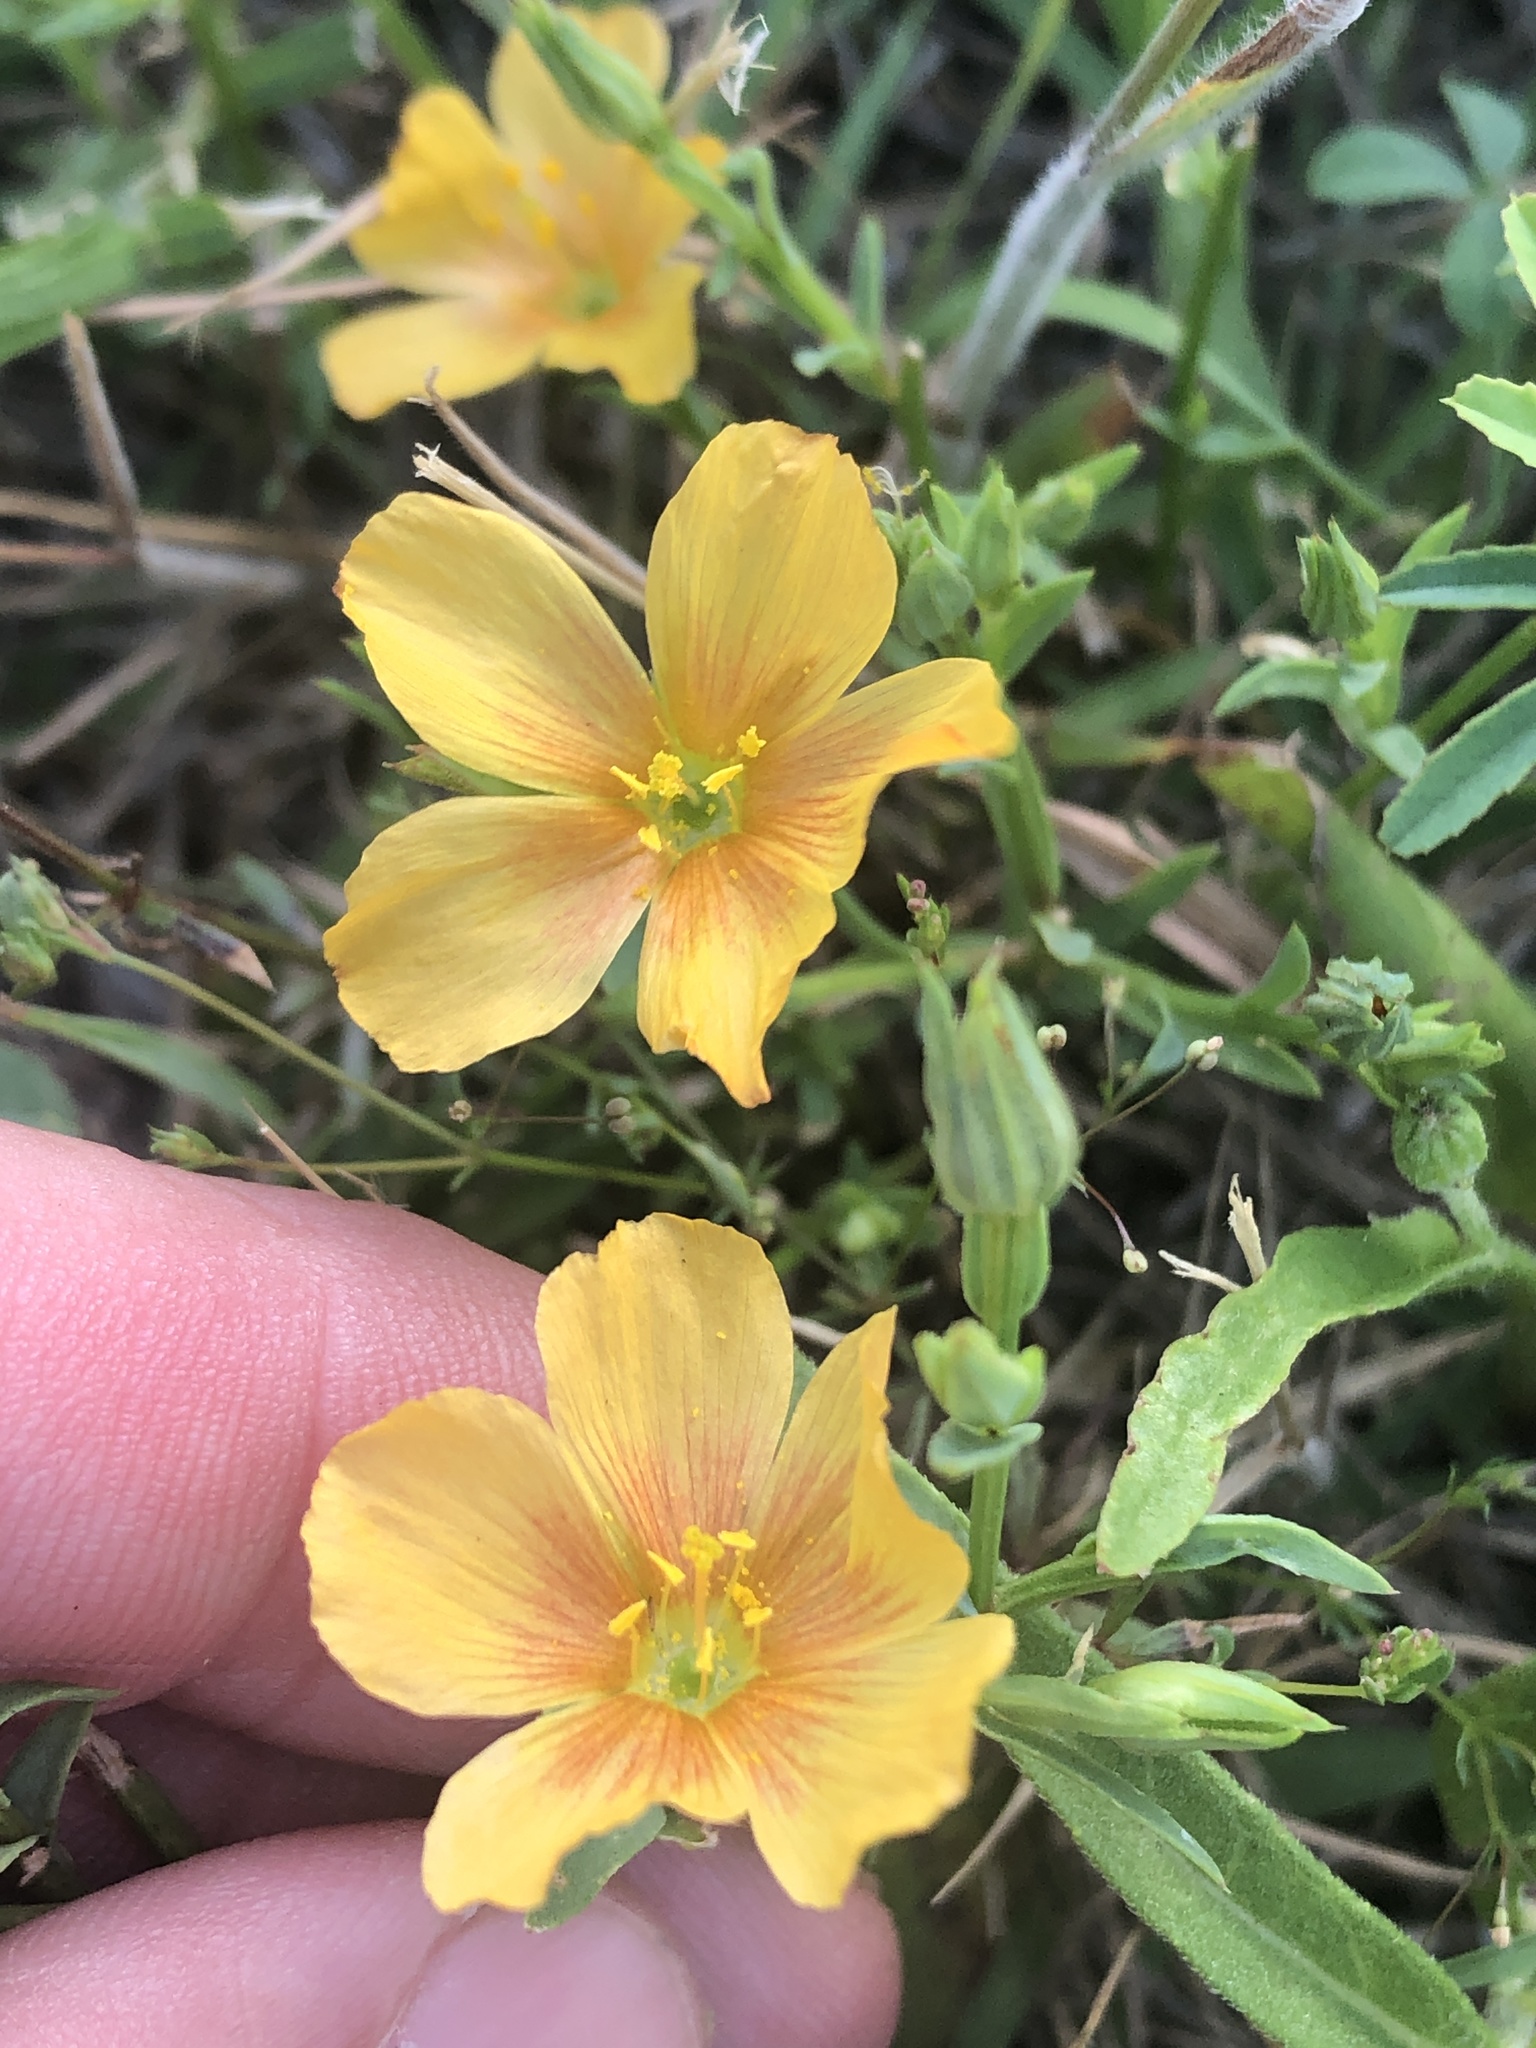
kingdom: Plantae
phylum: Tracheophyta
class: Magnoliopsida
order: Malpighiales
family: Linaceae
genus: Linum
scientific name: Linum berlandieri
